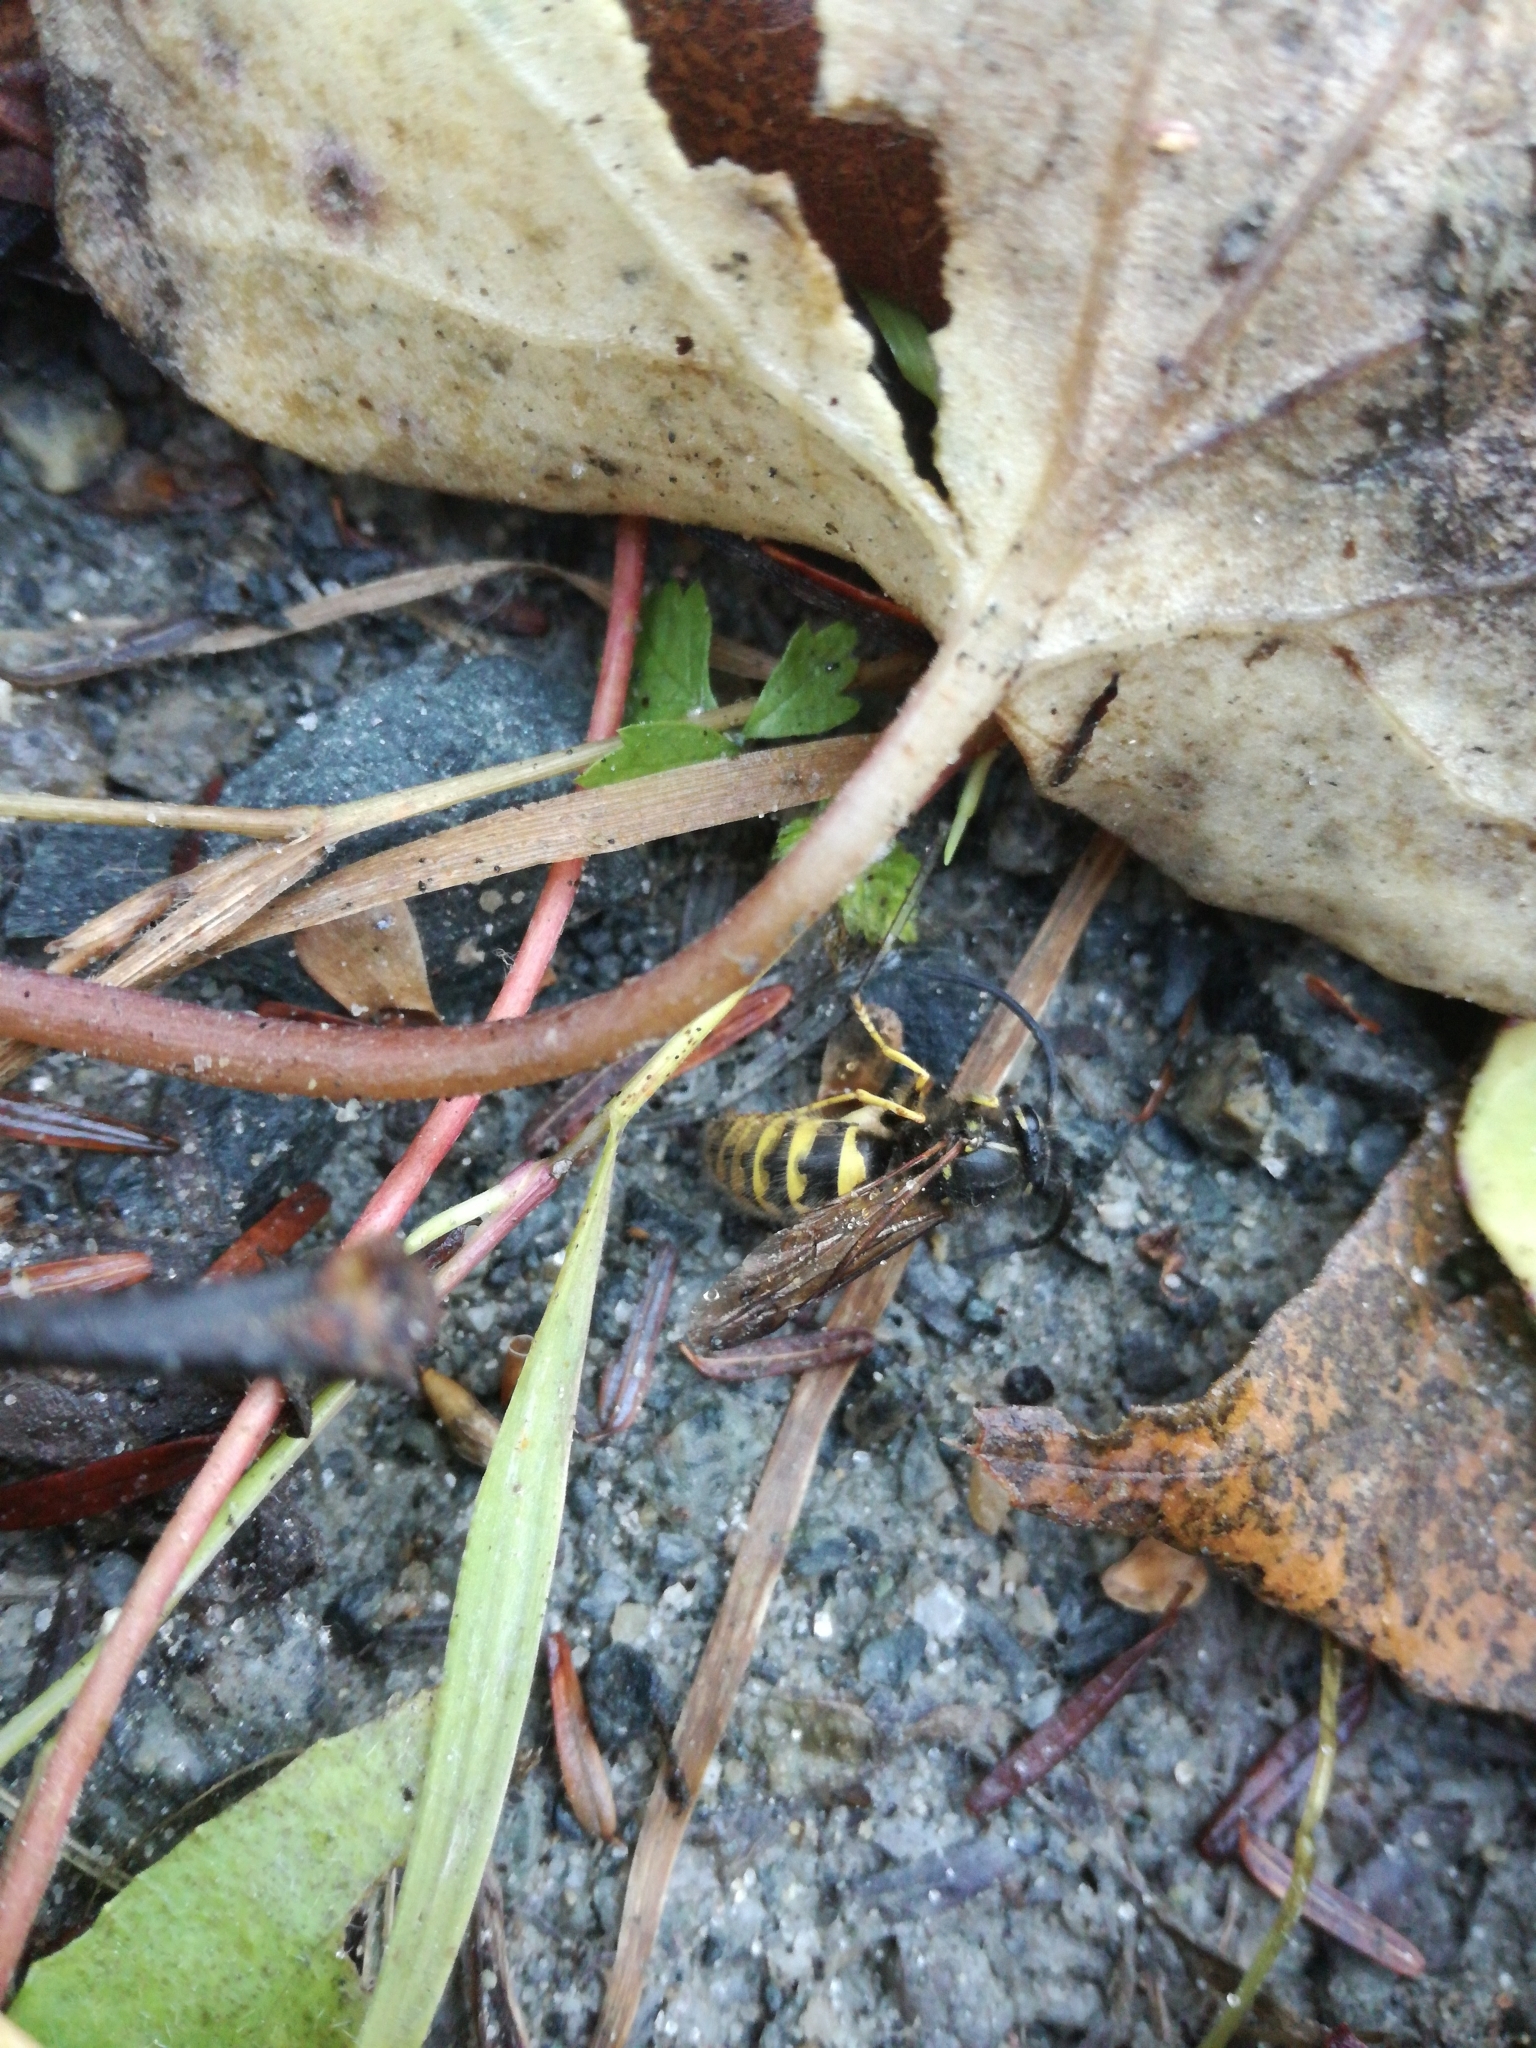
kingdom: Animalia
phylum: Arthropoda
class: Insecta
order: Hymenoptera
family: Vespidae
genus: Vespula
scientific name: Vespula germanica
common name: German wasp
